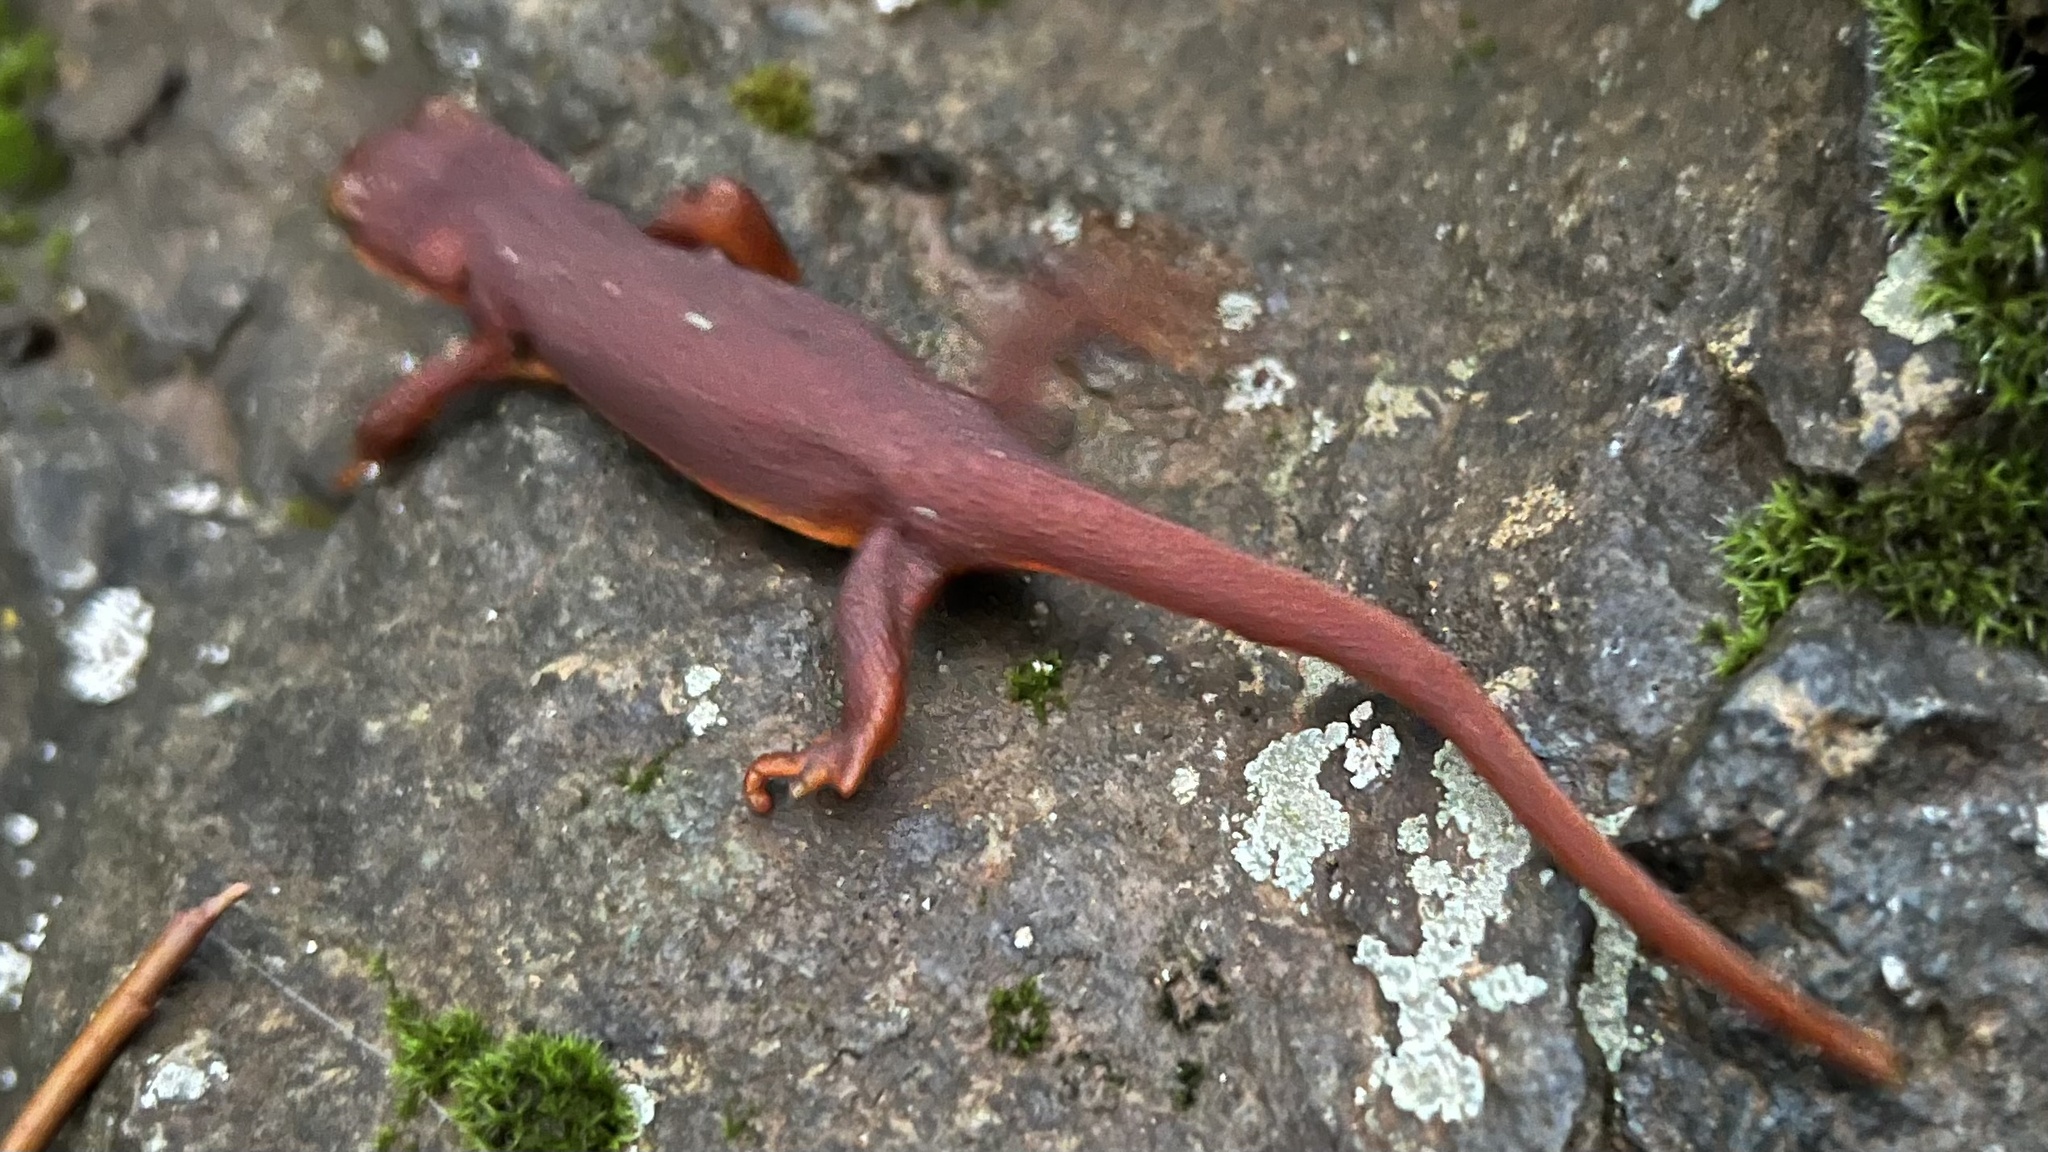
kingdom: Animalia
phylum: Chordata
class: Amphibia
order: Caudata
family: Salamandridae
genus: Taricha
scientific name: Taricha torosa
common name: California newt
